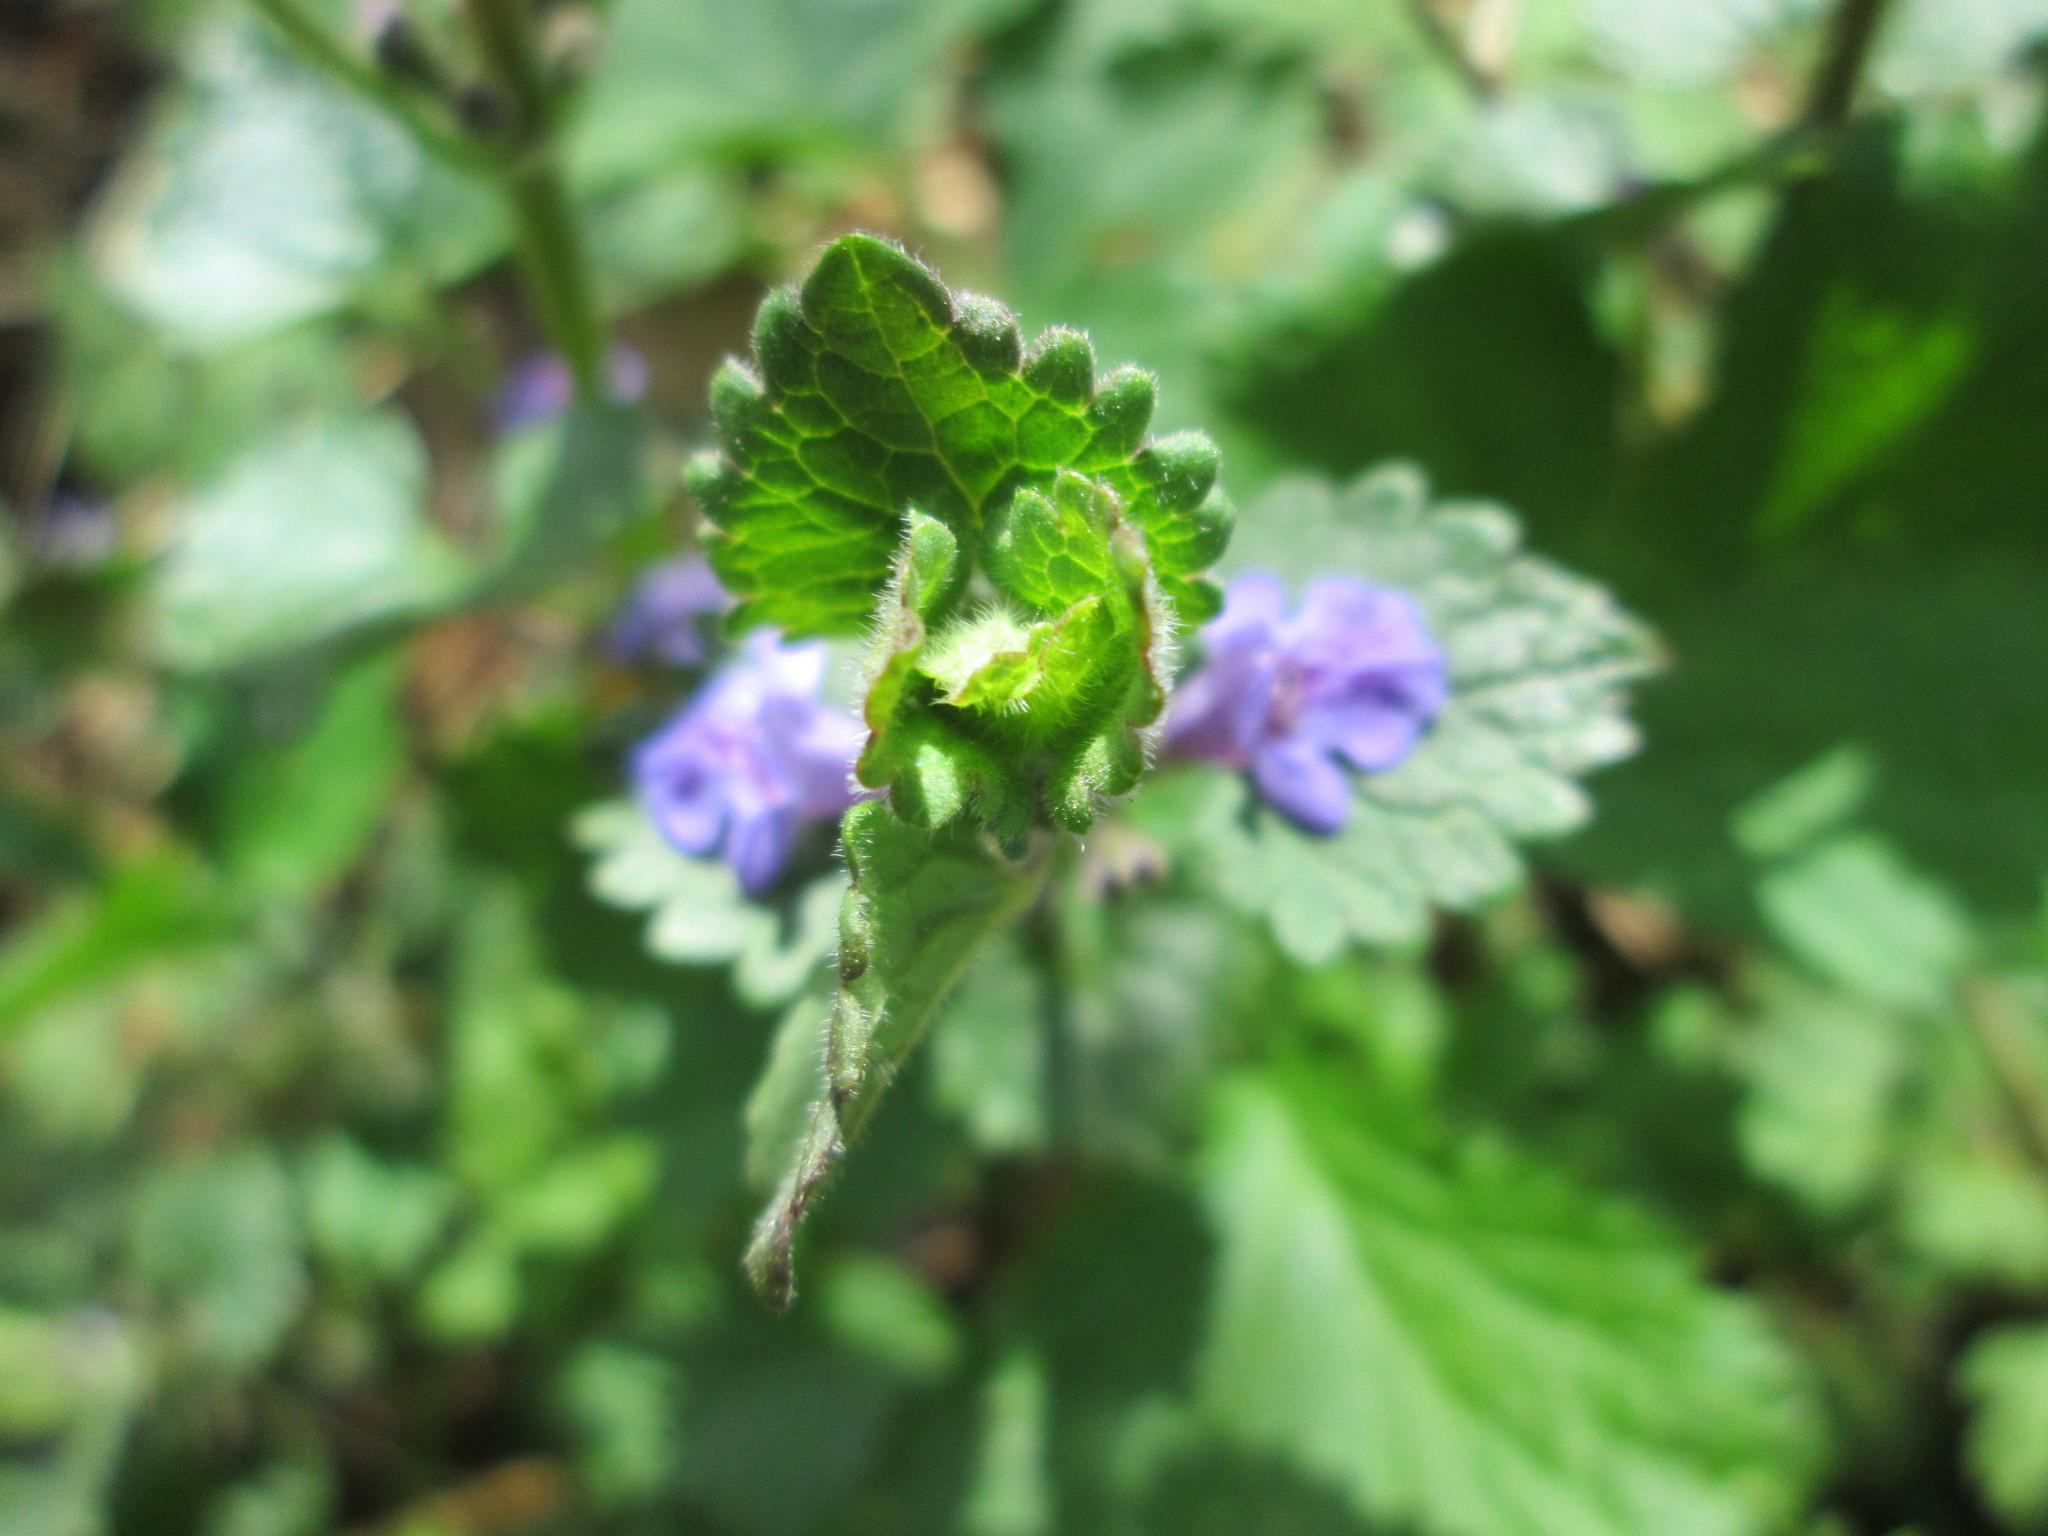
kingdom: Plantae
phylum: Tracheophyta
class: Magnoliopsida
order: Lamiales
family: Lamiaceae
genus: Glechoma
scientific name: Glechoma hederacea
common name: Ground ivy
